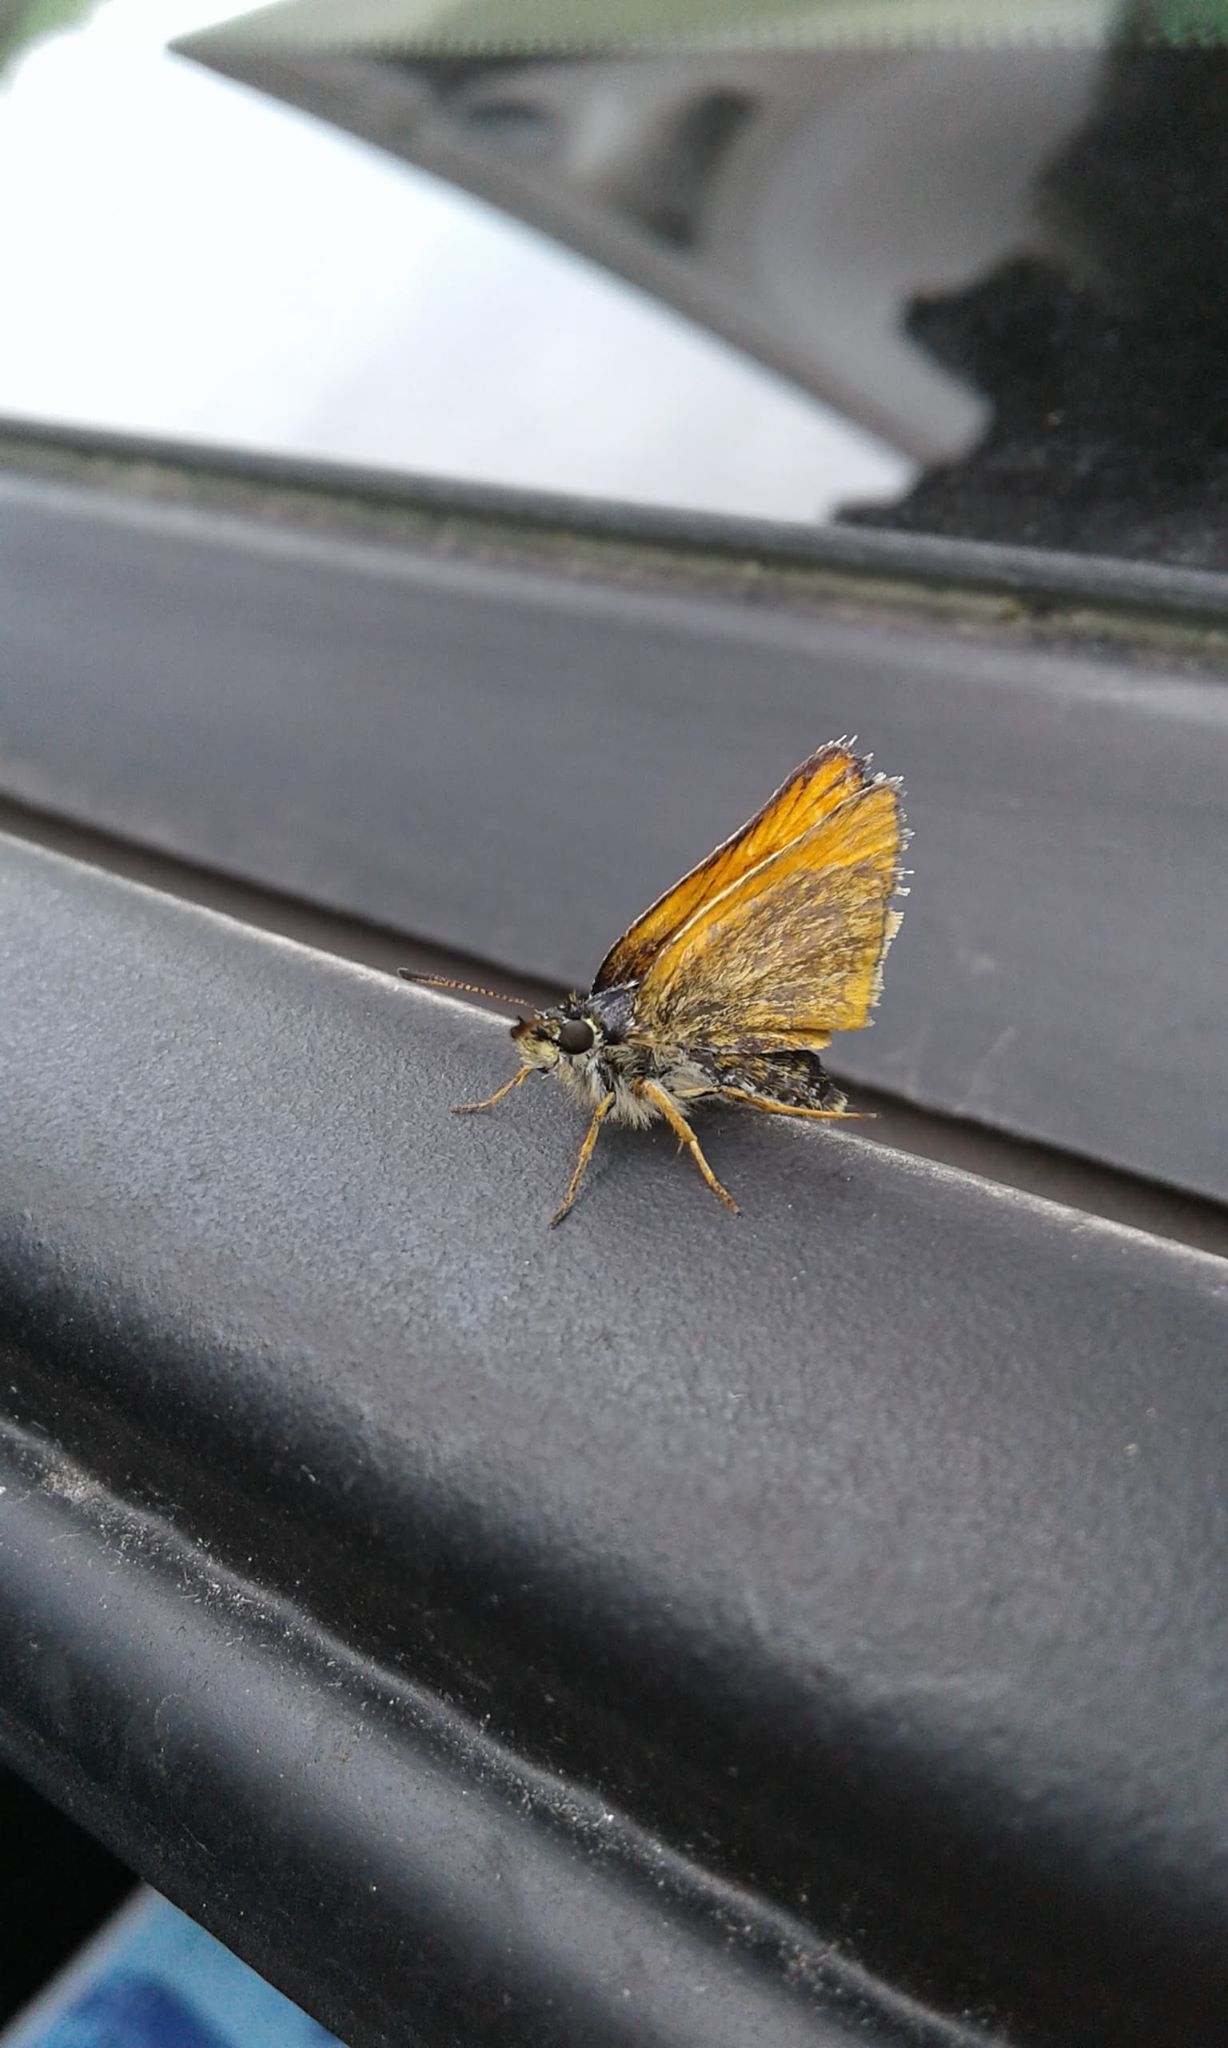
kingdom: Animalia
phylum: Arthropoda
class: Insecta
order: Lepidoptera
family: Hesperiidae
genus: Thymelicus
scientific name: Thymelicus lineola
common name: Essex skipper
